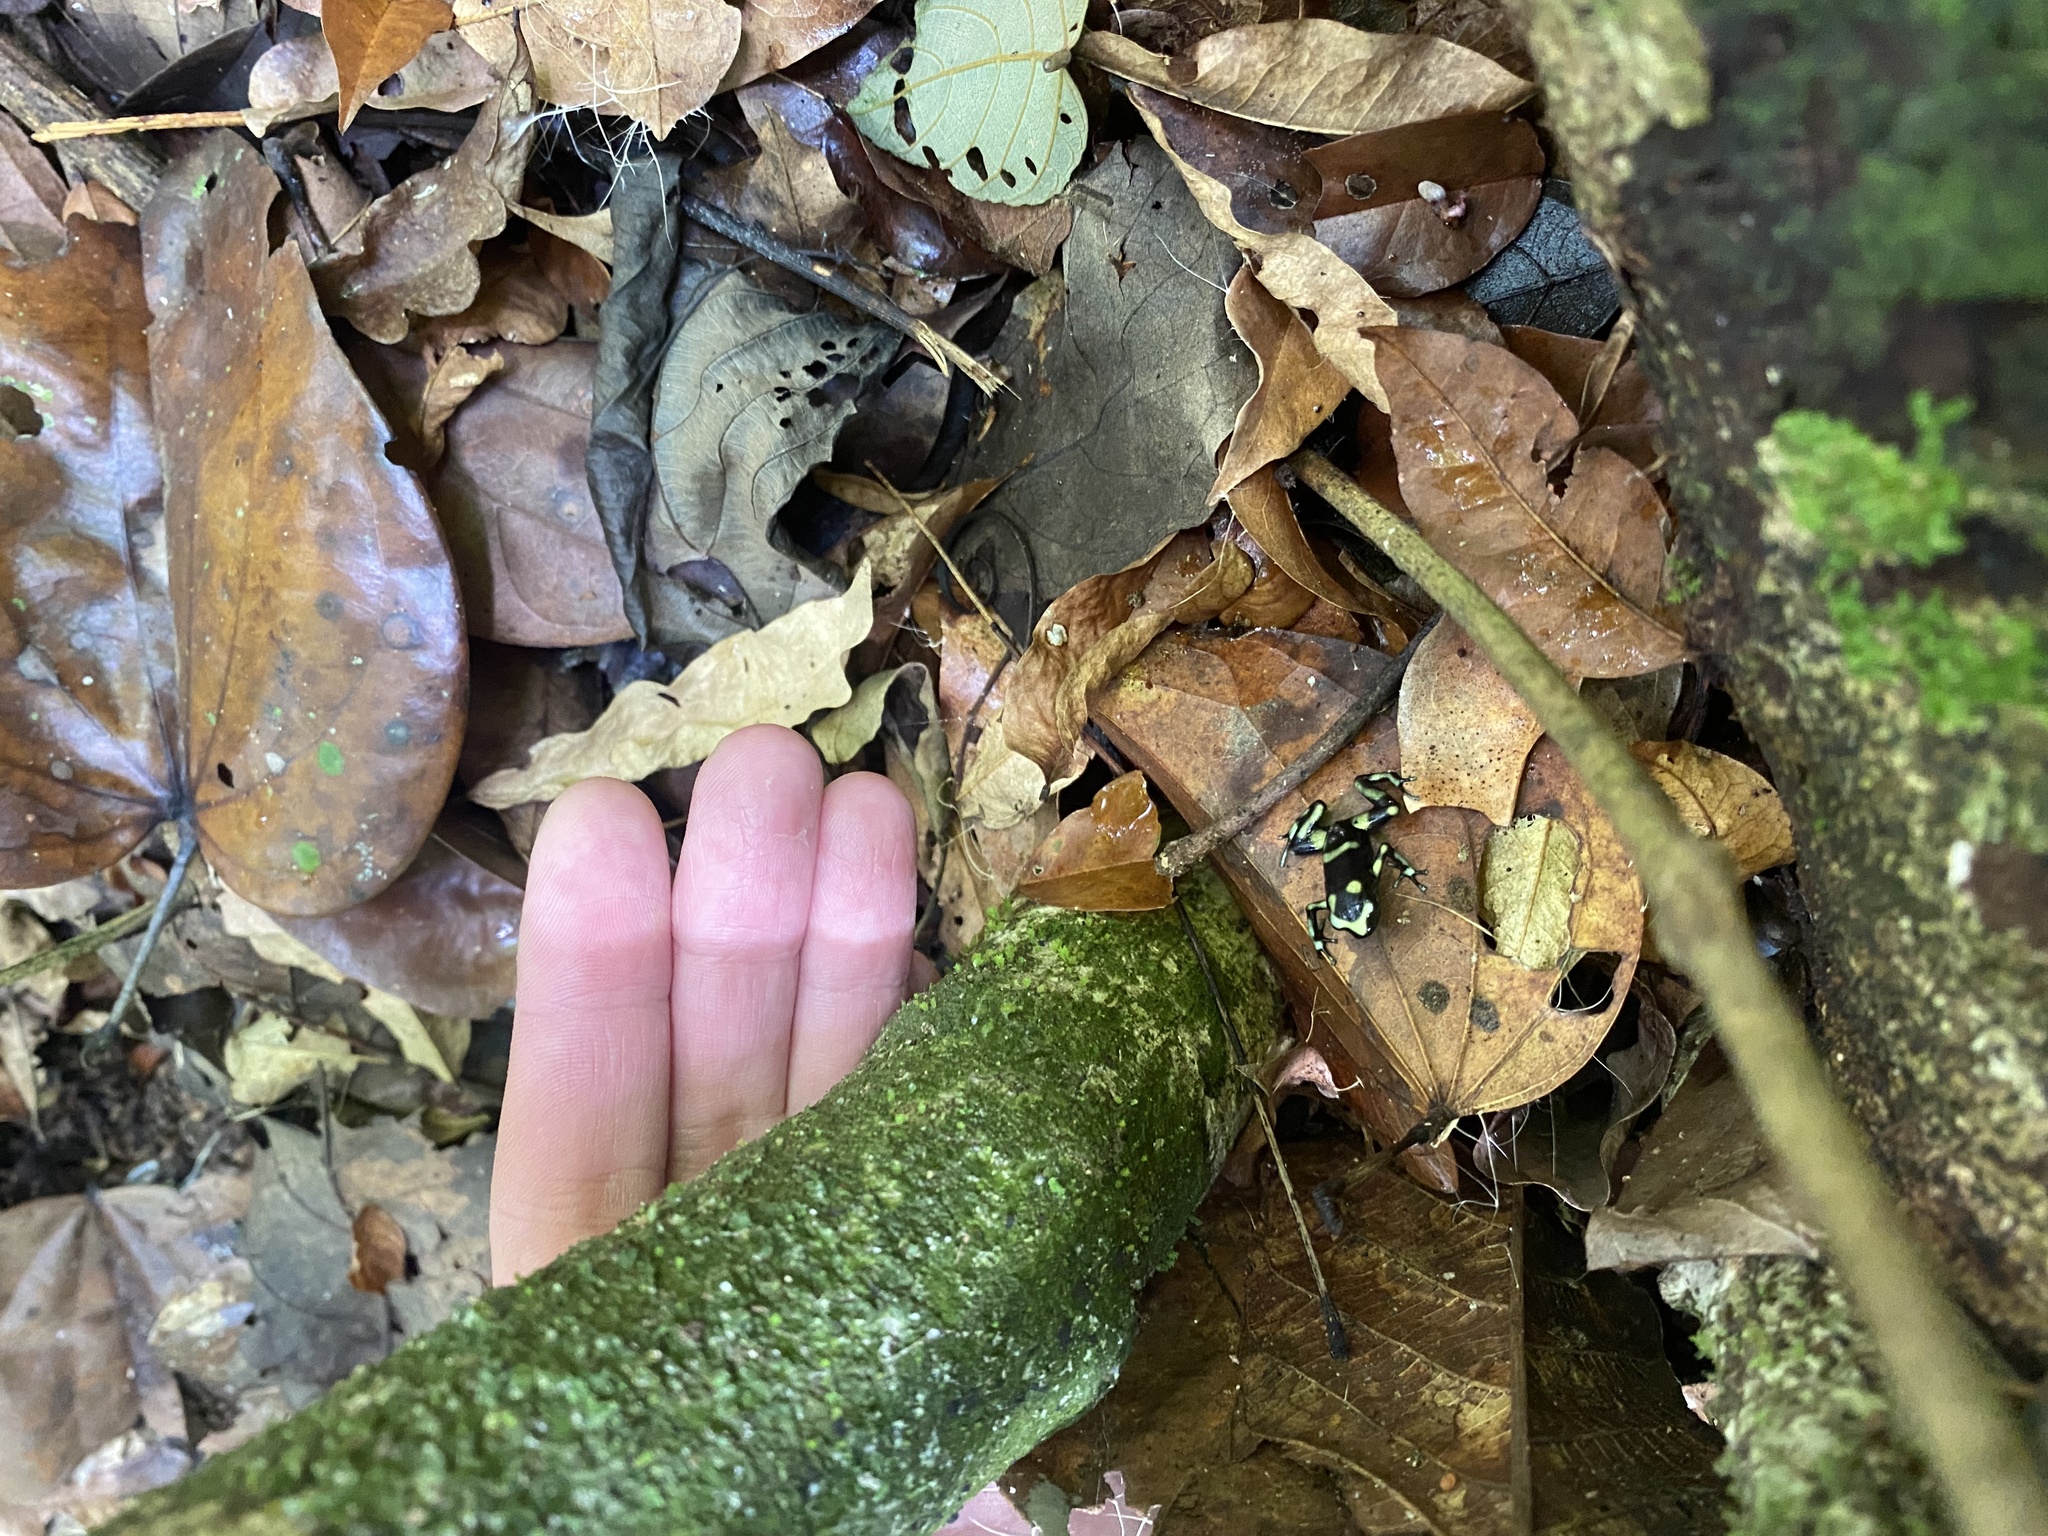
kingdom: Animalia
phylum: Chordata
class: Amphibia
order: Anura
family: Dendrobatidae
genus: Dendrobates
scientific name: Dendrobates auratus
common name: Green and black poison dart frog
